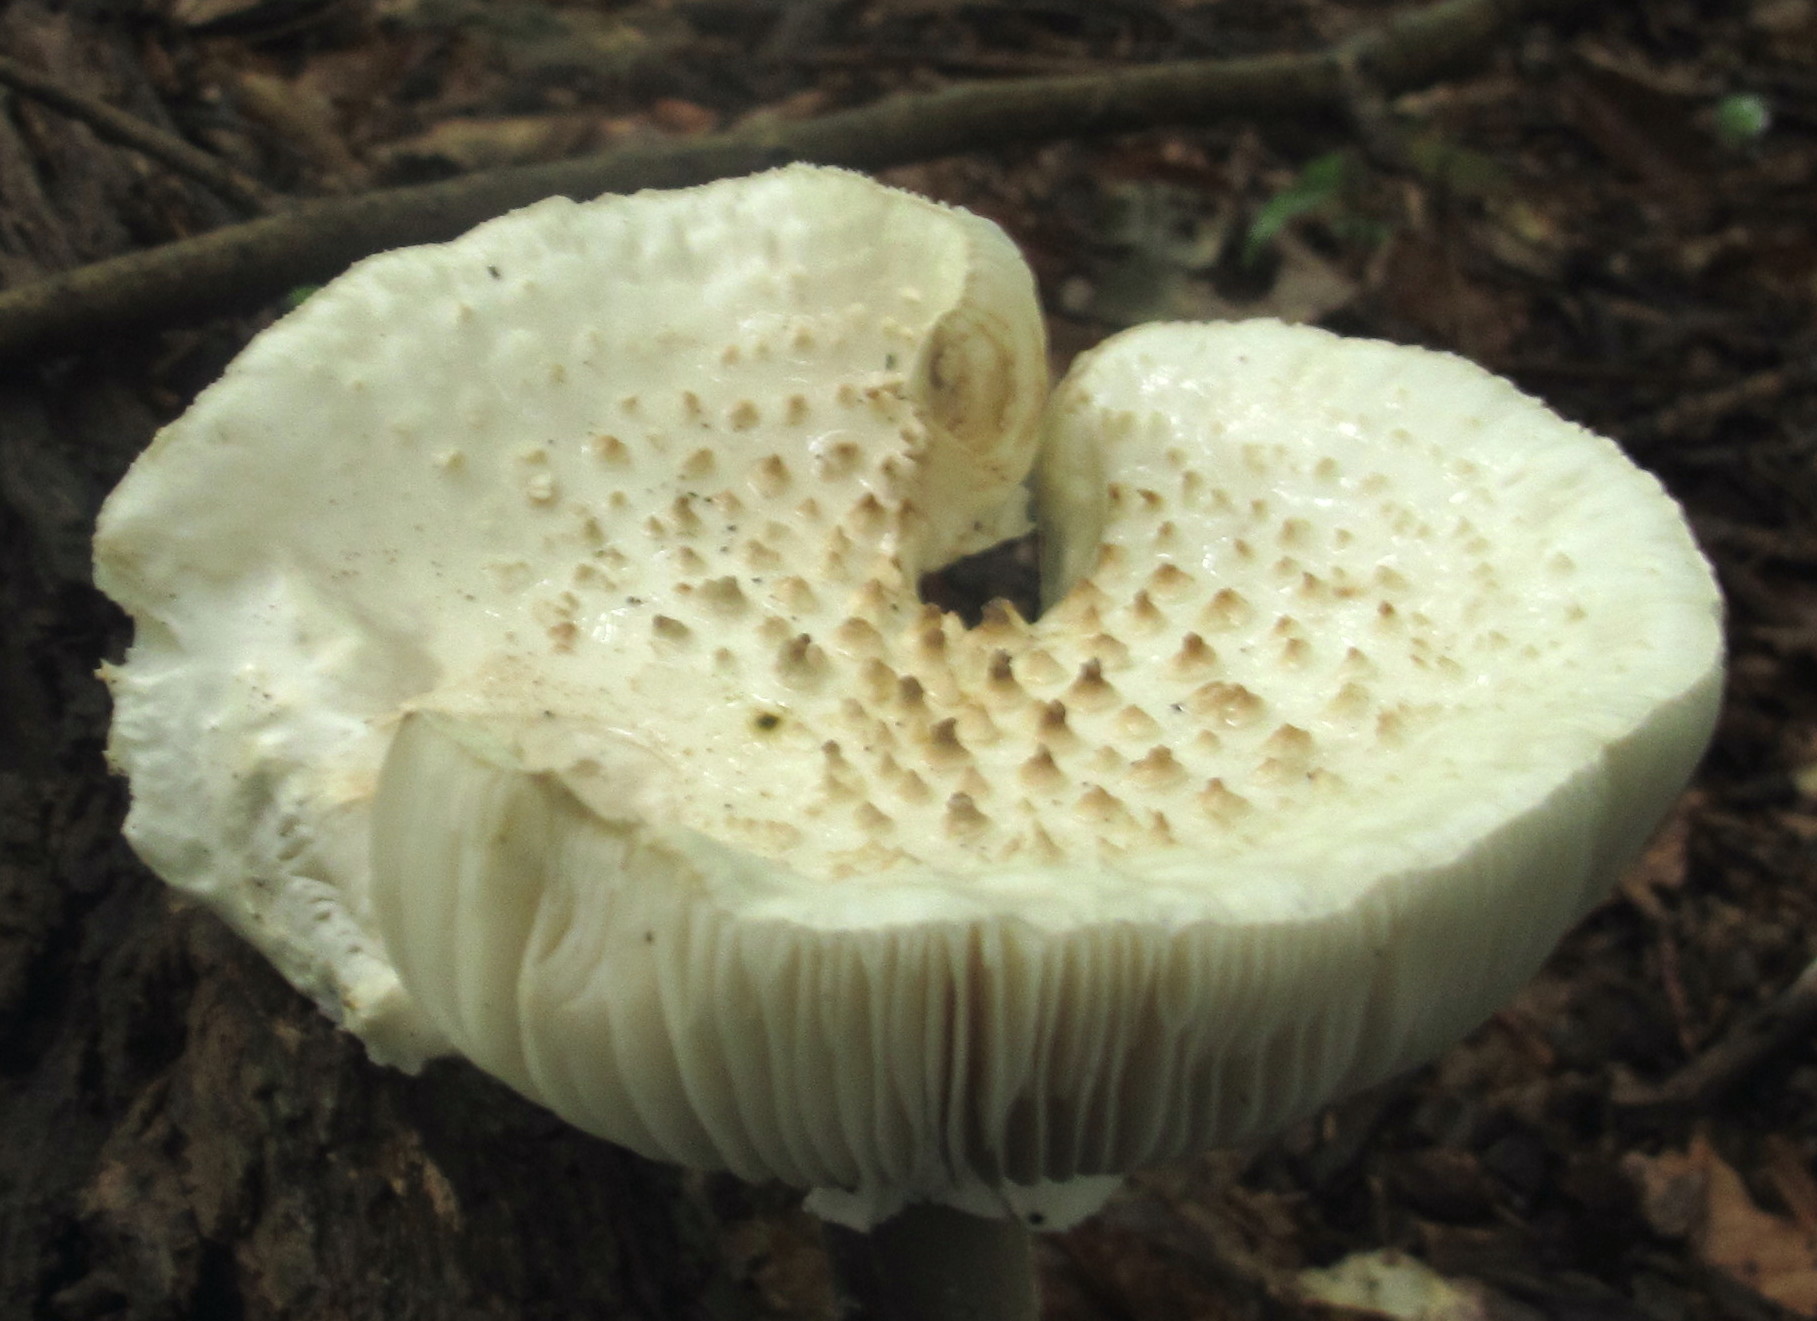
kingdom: Fungi
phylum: Basidiomycota
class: Agaricomycetes
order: Agaricales
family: Amanitaceae
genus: Amanita
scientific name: Amanita cokeri
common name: Coker's amanita
